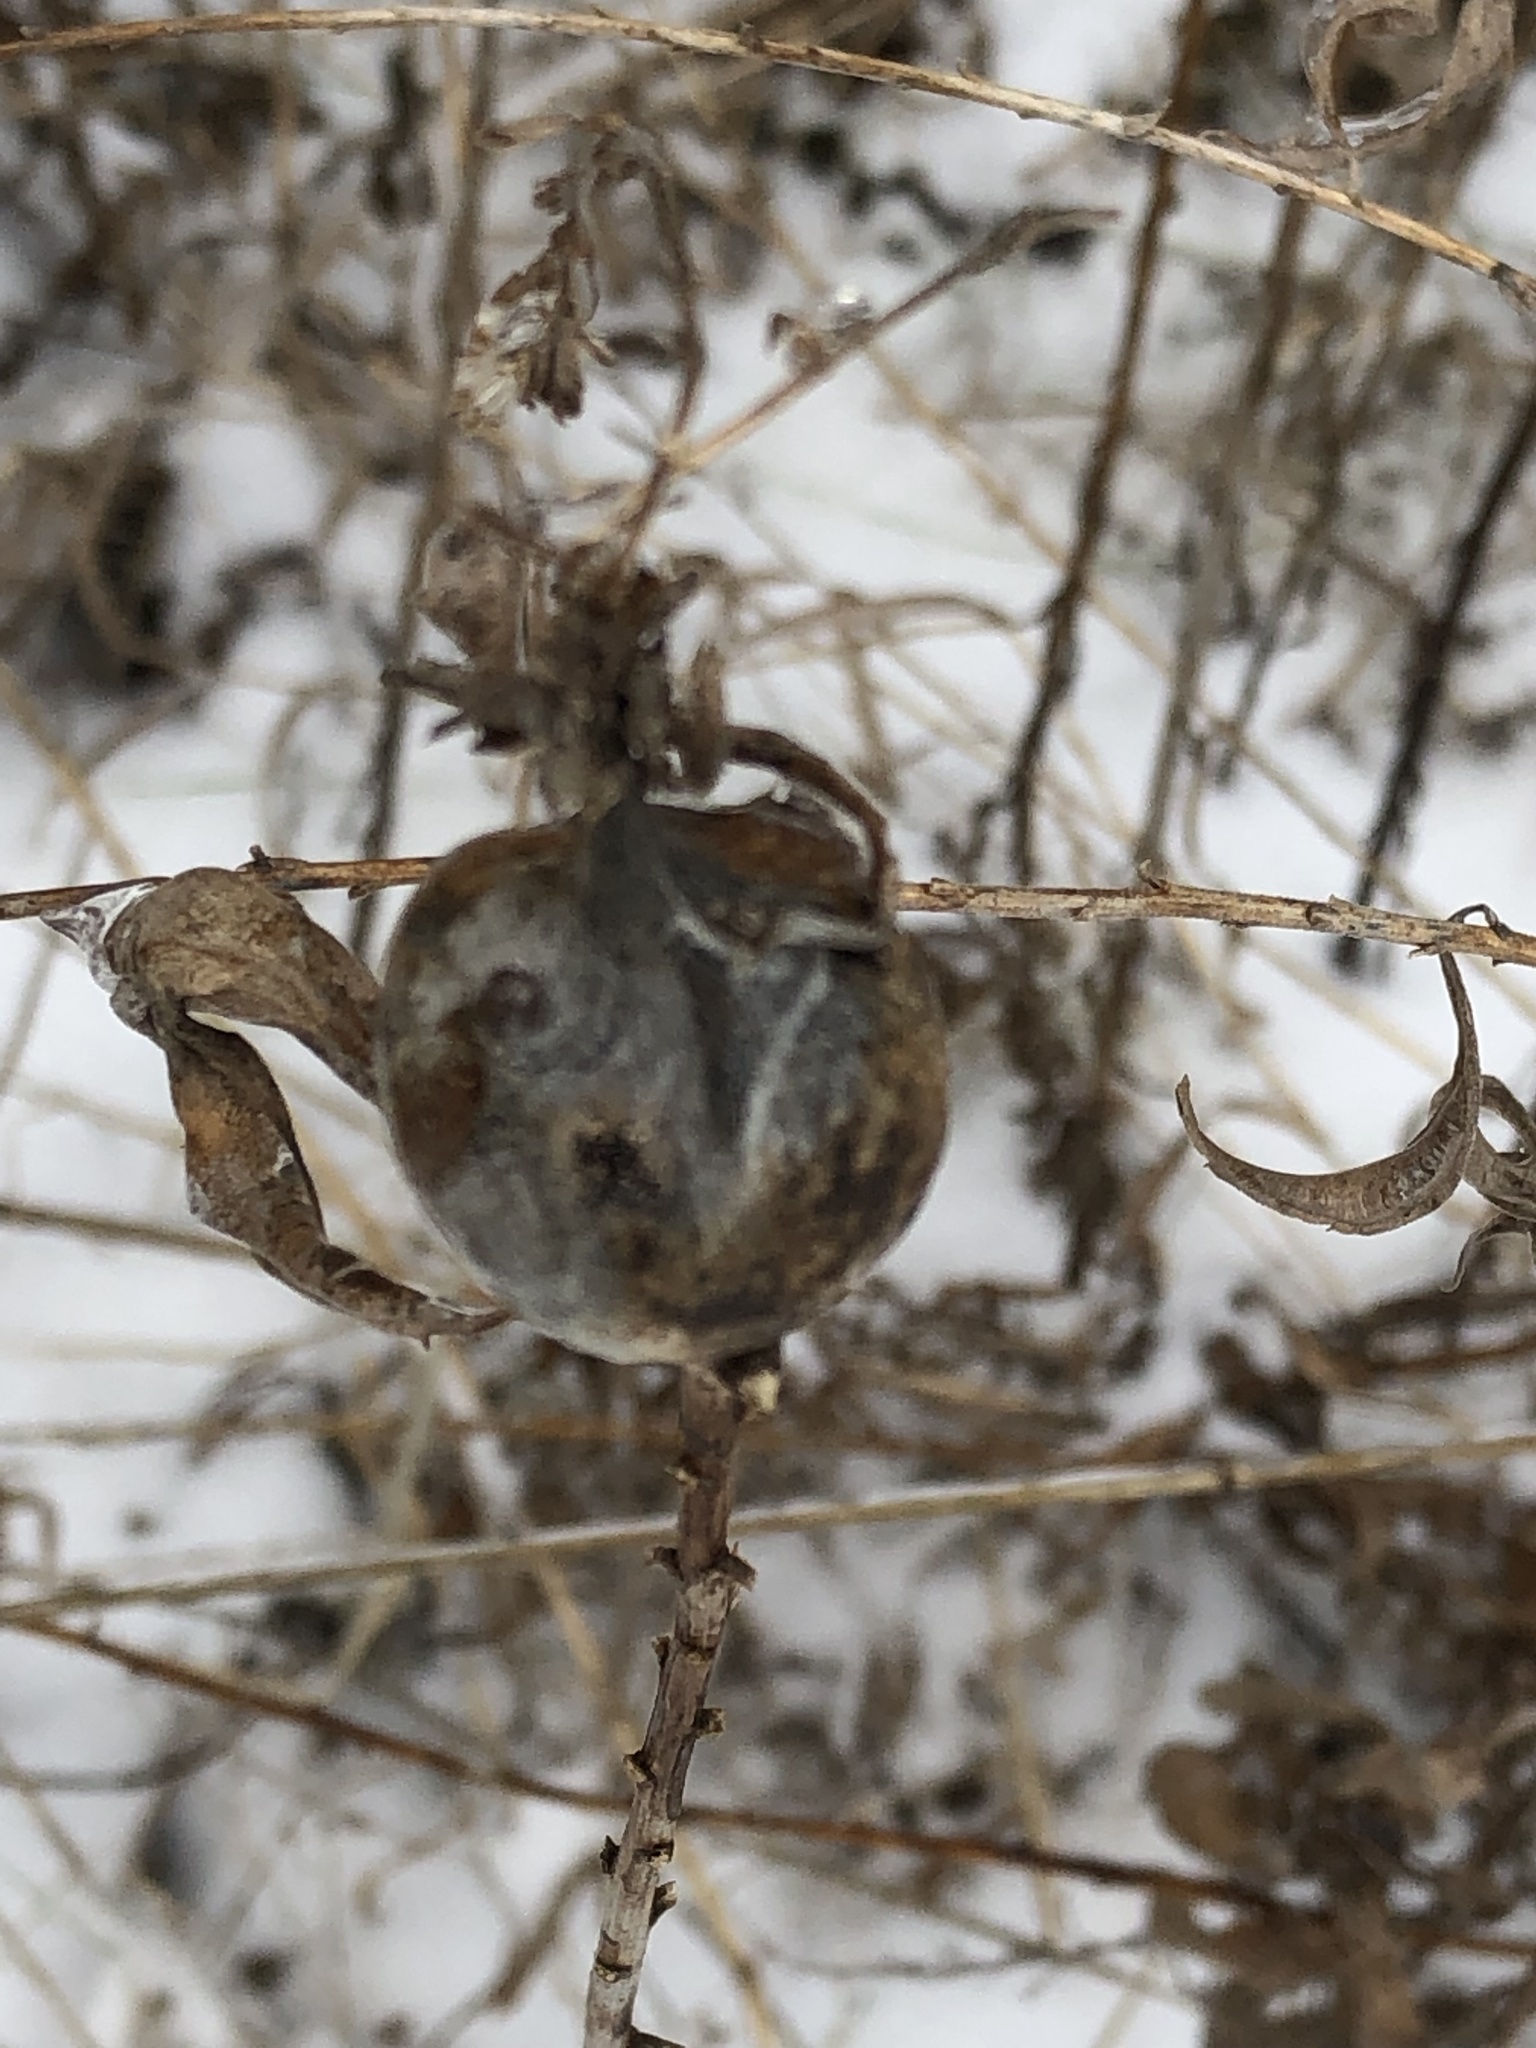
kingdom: Animalia
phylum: Arthropoda
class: Insecta
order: Diptera
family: Tephritidae
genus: Eurosta
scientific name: Eurosta solidaginis
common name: Goldenrod gall fly
